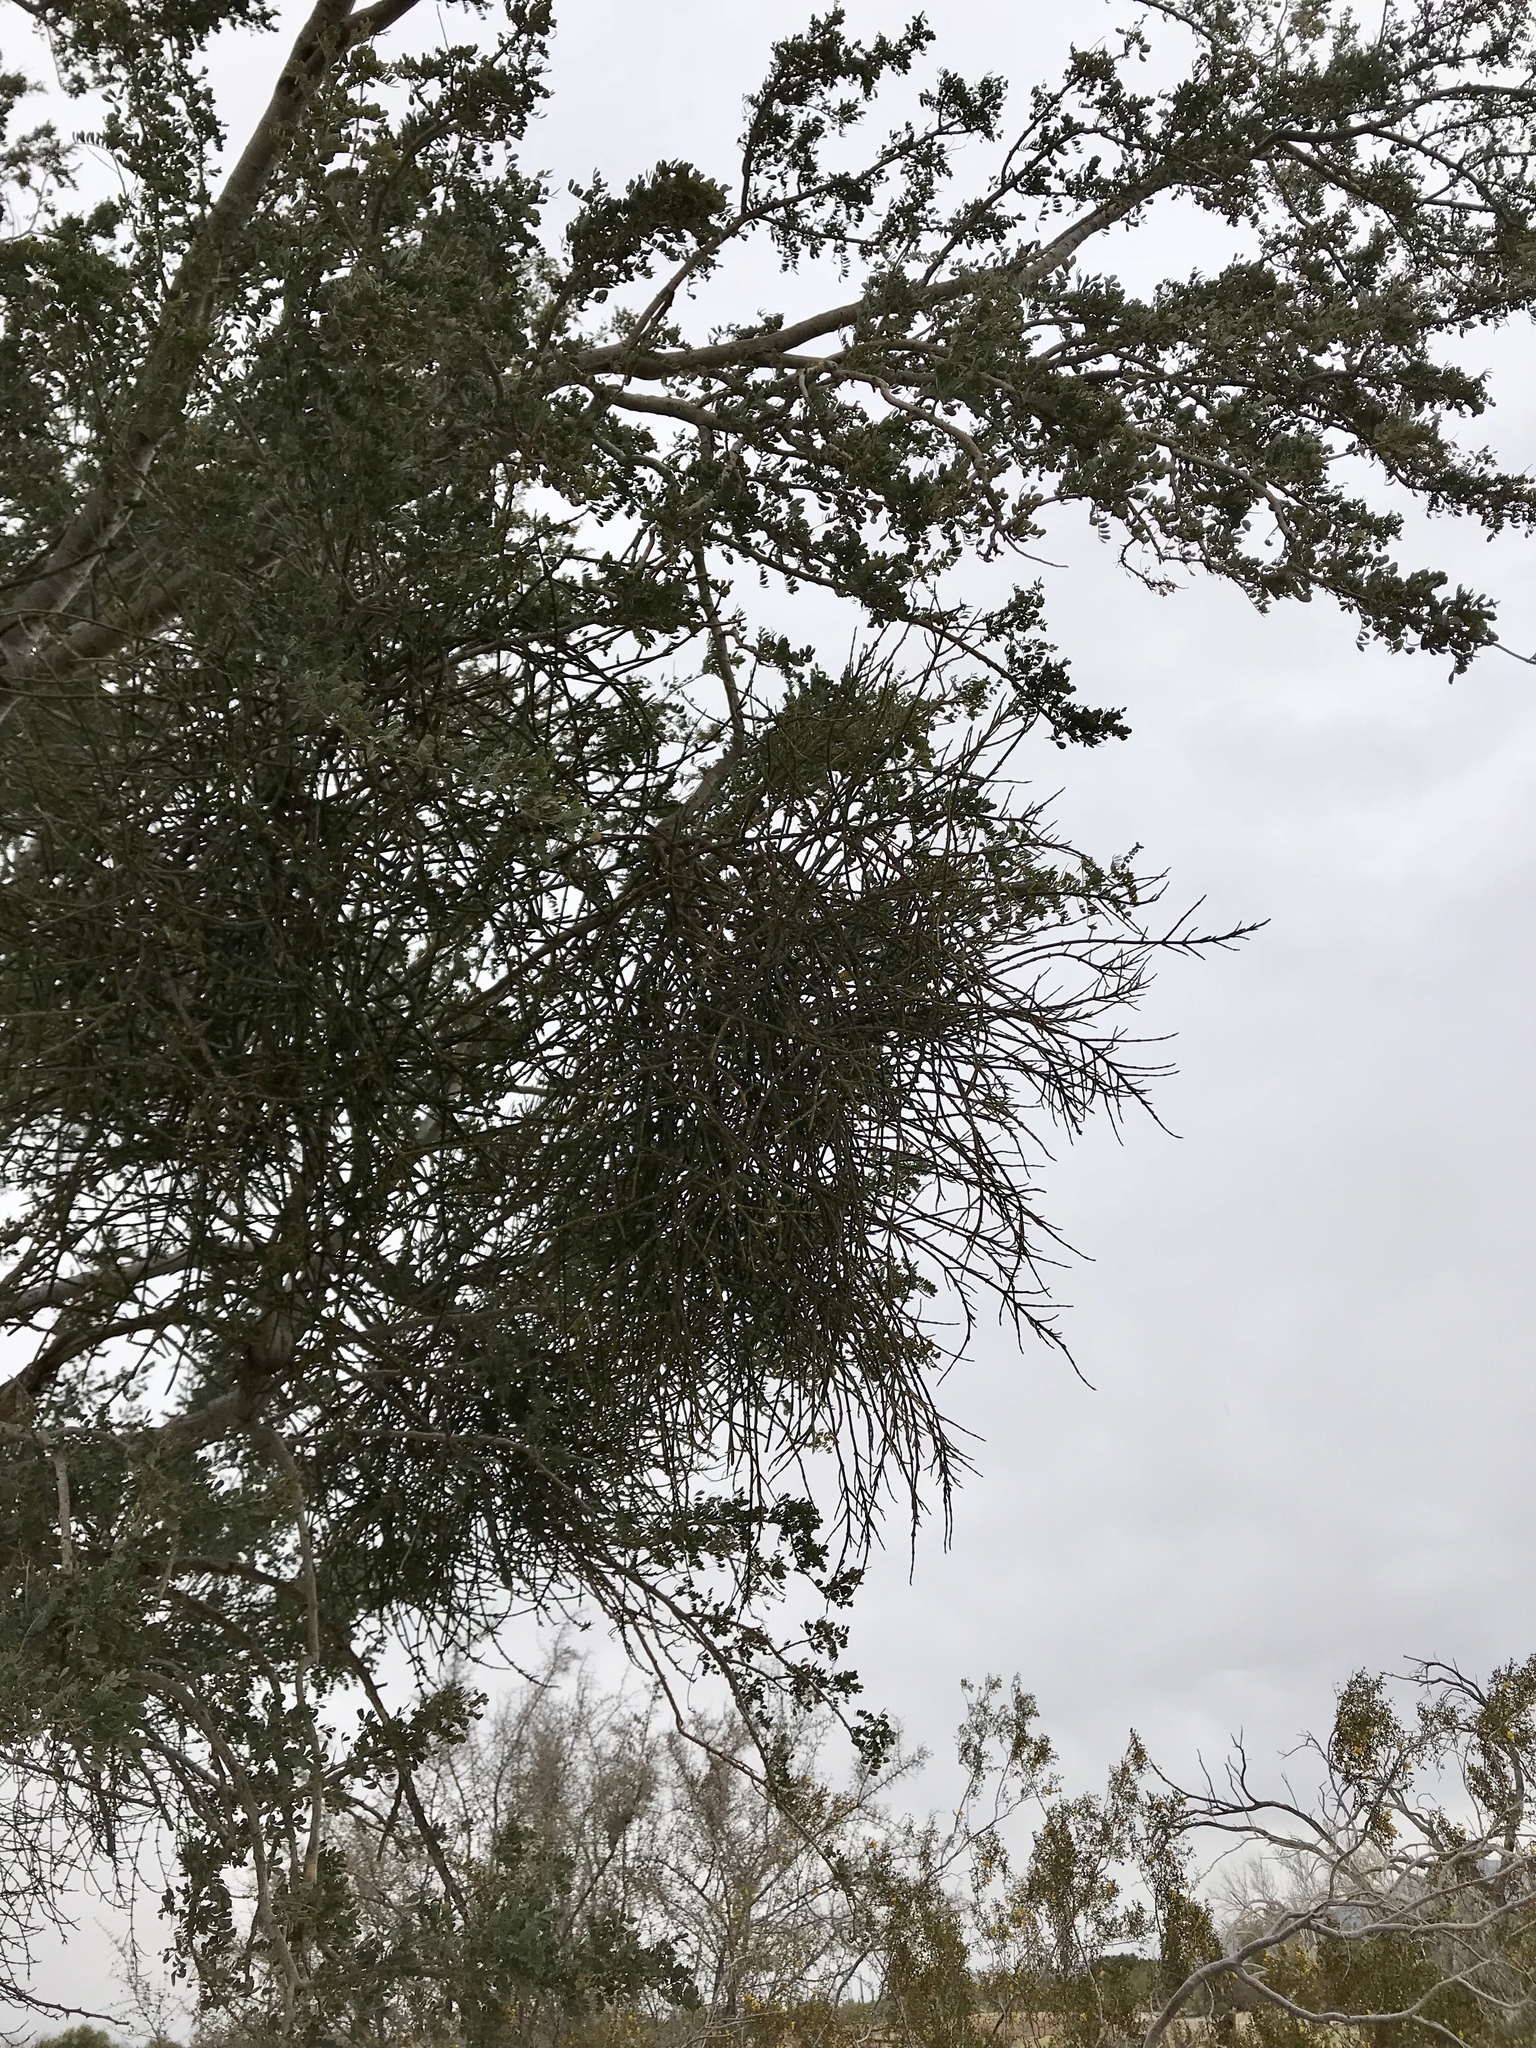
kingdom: Plantae
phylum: Tracheophyta
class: Magnoliopsida
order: Fabales
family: Fabaceae
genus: Olneya
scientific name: Olneya tesota
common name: Desert ironwood
